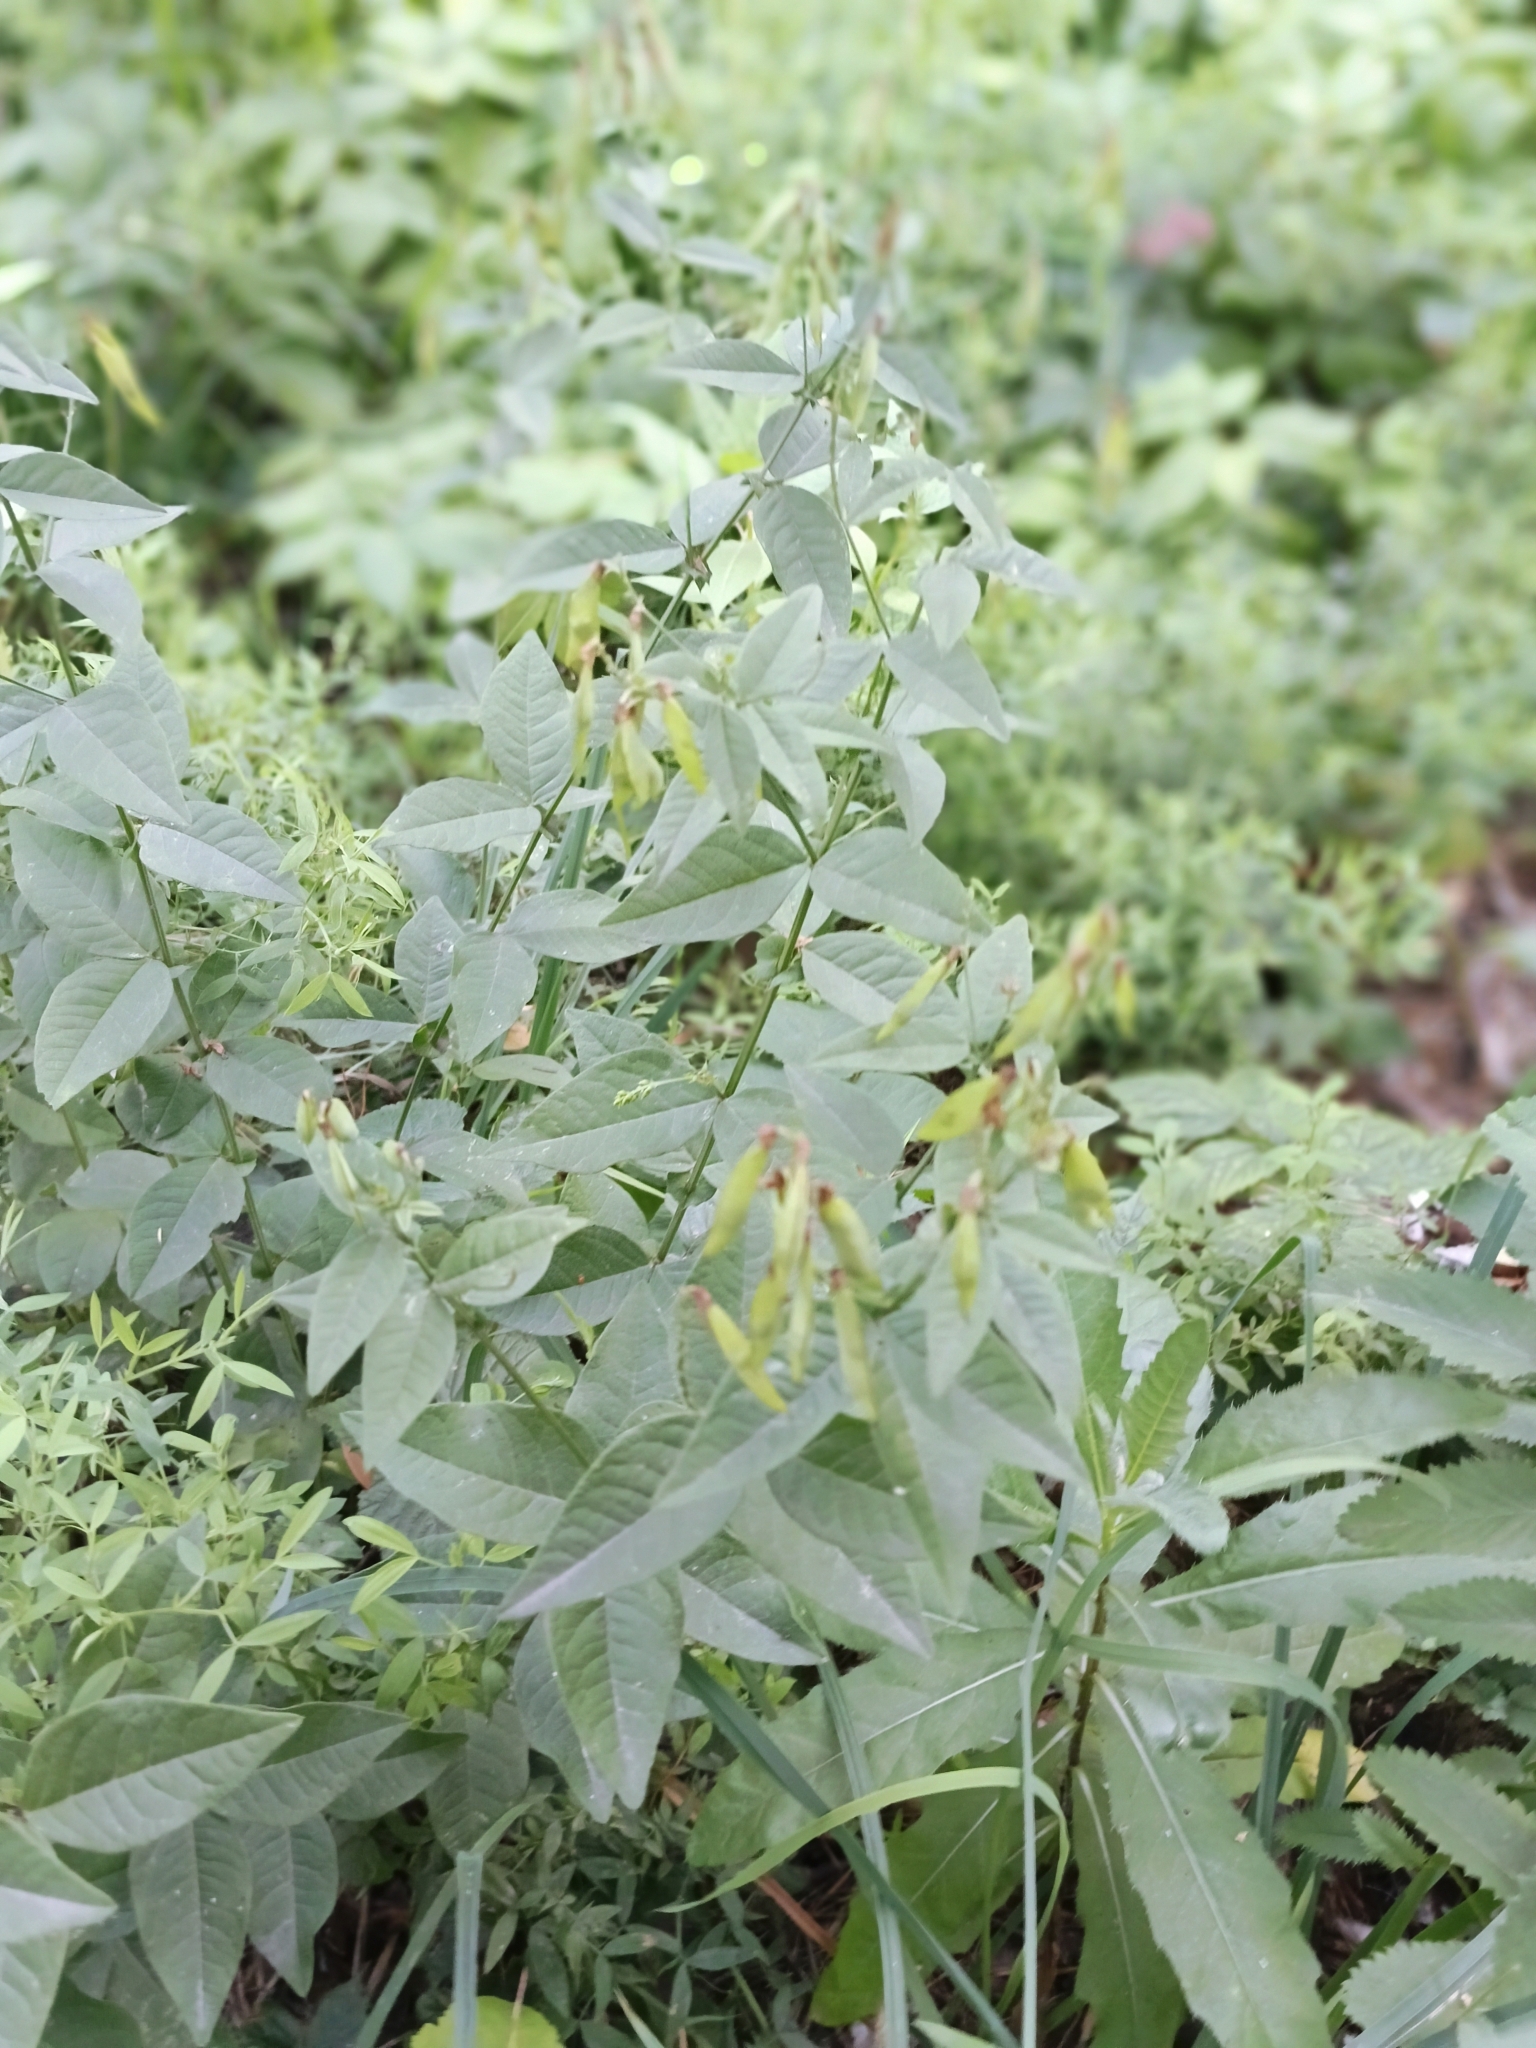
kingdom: Plantae
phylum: Tracheophyta
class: Magnoliopsida
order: Fabales
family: Fabaceae
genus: Vicia
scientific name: Vicia unijuga
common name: Two-leaf vetch
